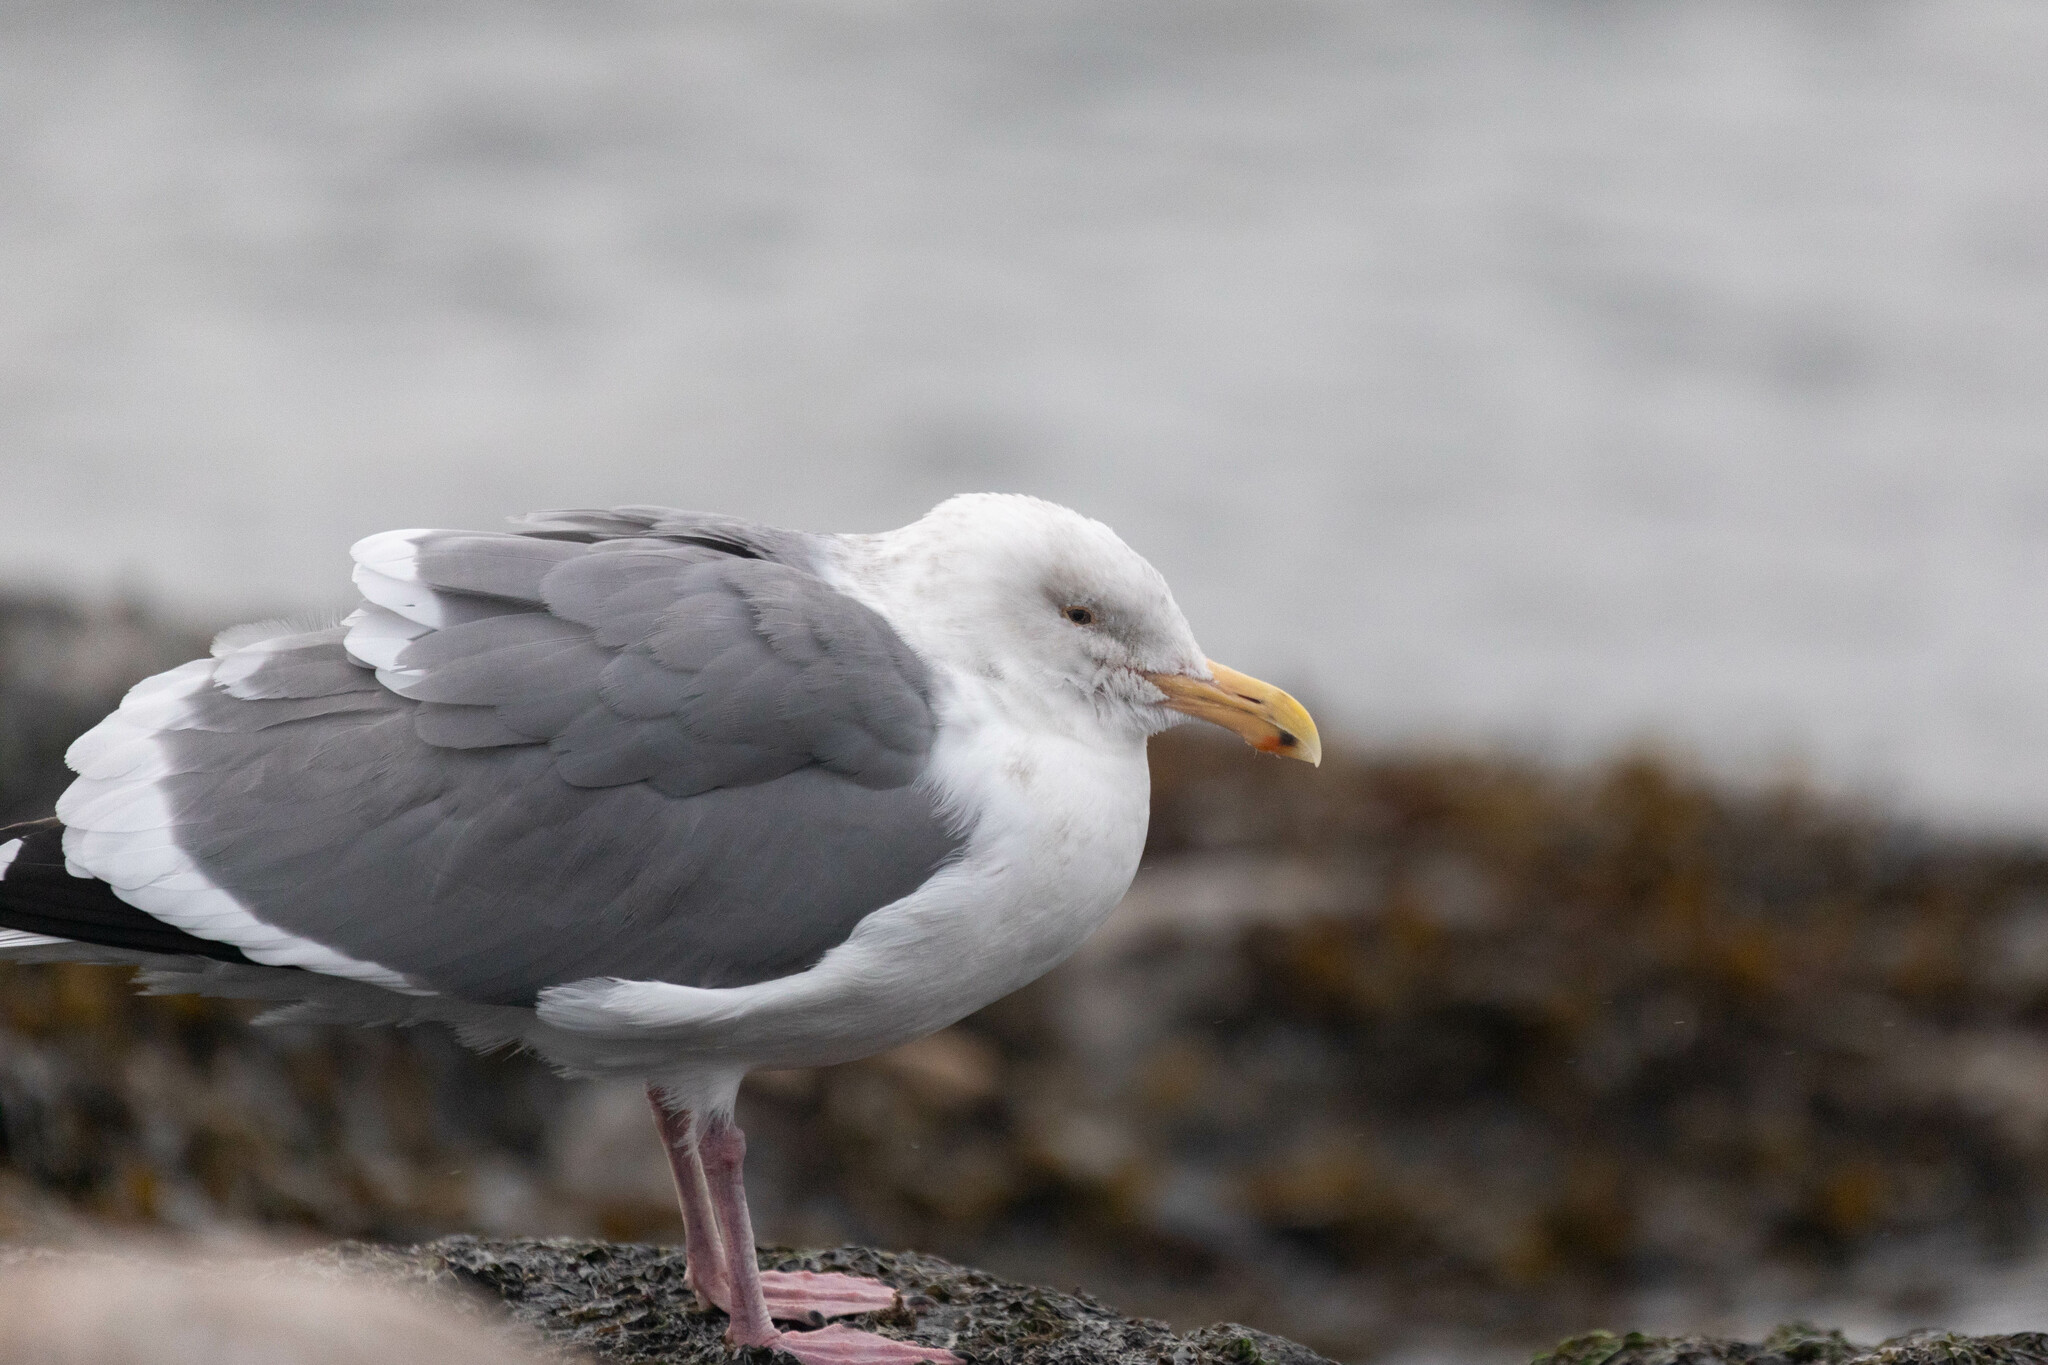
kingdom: Animalia
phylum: Chordata
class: Aves
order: Charadriiformes
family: Laridae
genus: Larus
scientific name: Larus occidentalis
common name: Western gull
